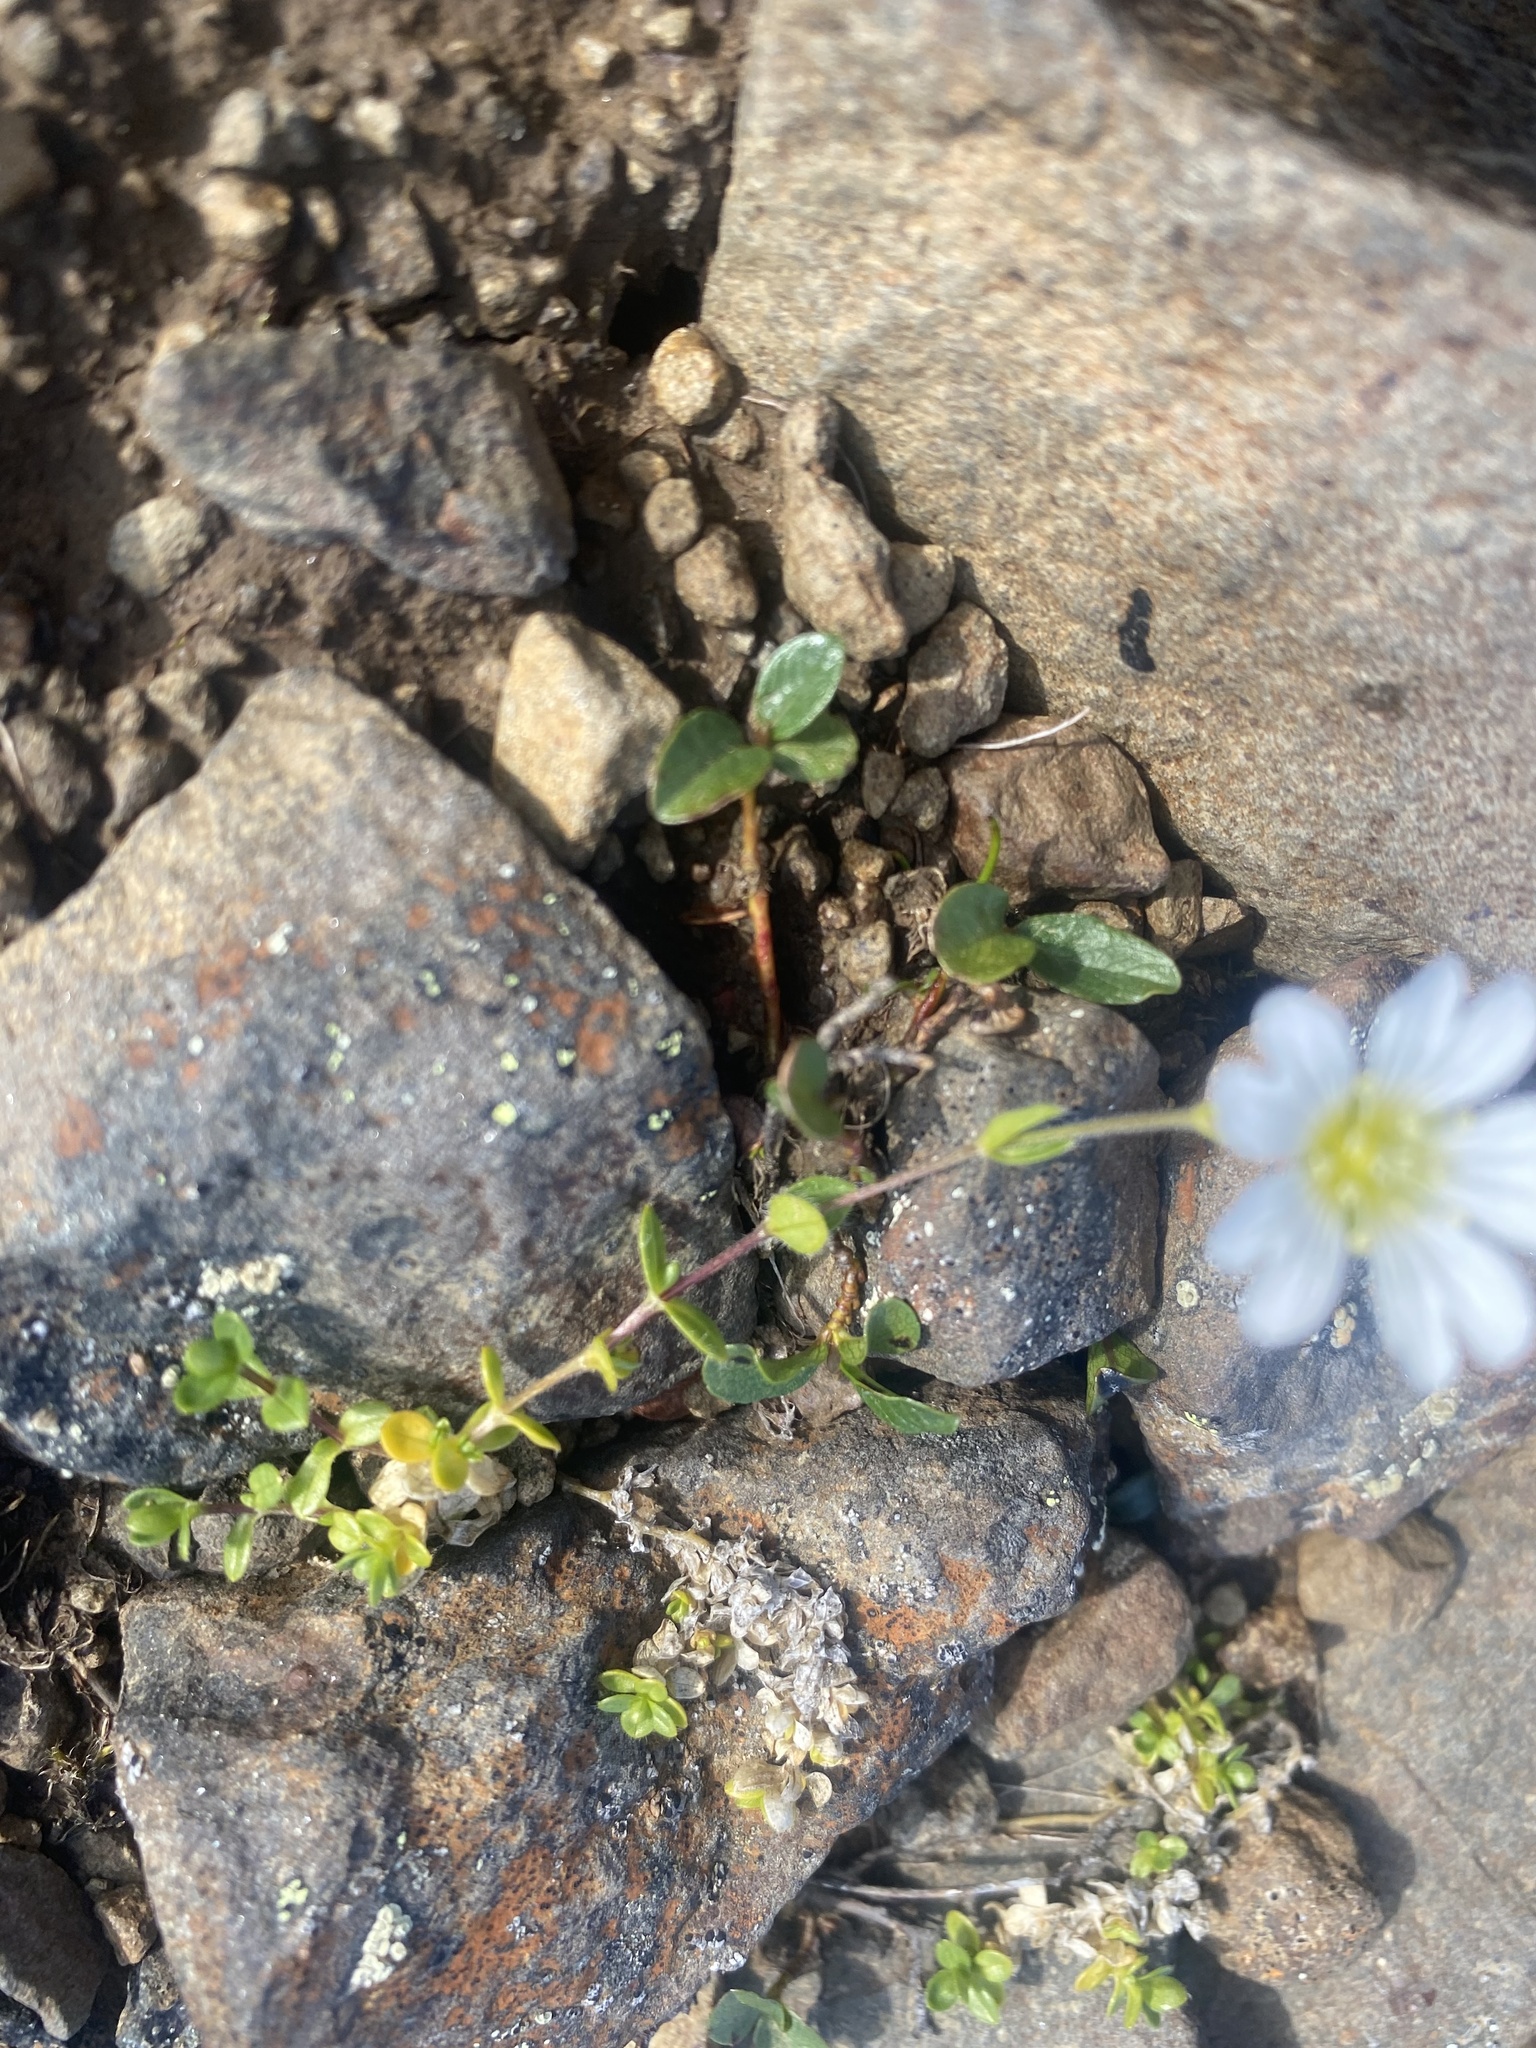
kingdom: Plantae
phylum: Tracheophyta
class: Magnoliopsida
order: Caryophyllales
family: Caryophyllaceae
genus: Cerastium
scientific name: Cerastium regelii
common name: Regel's chickweed
